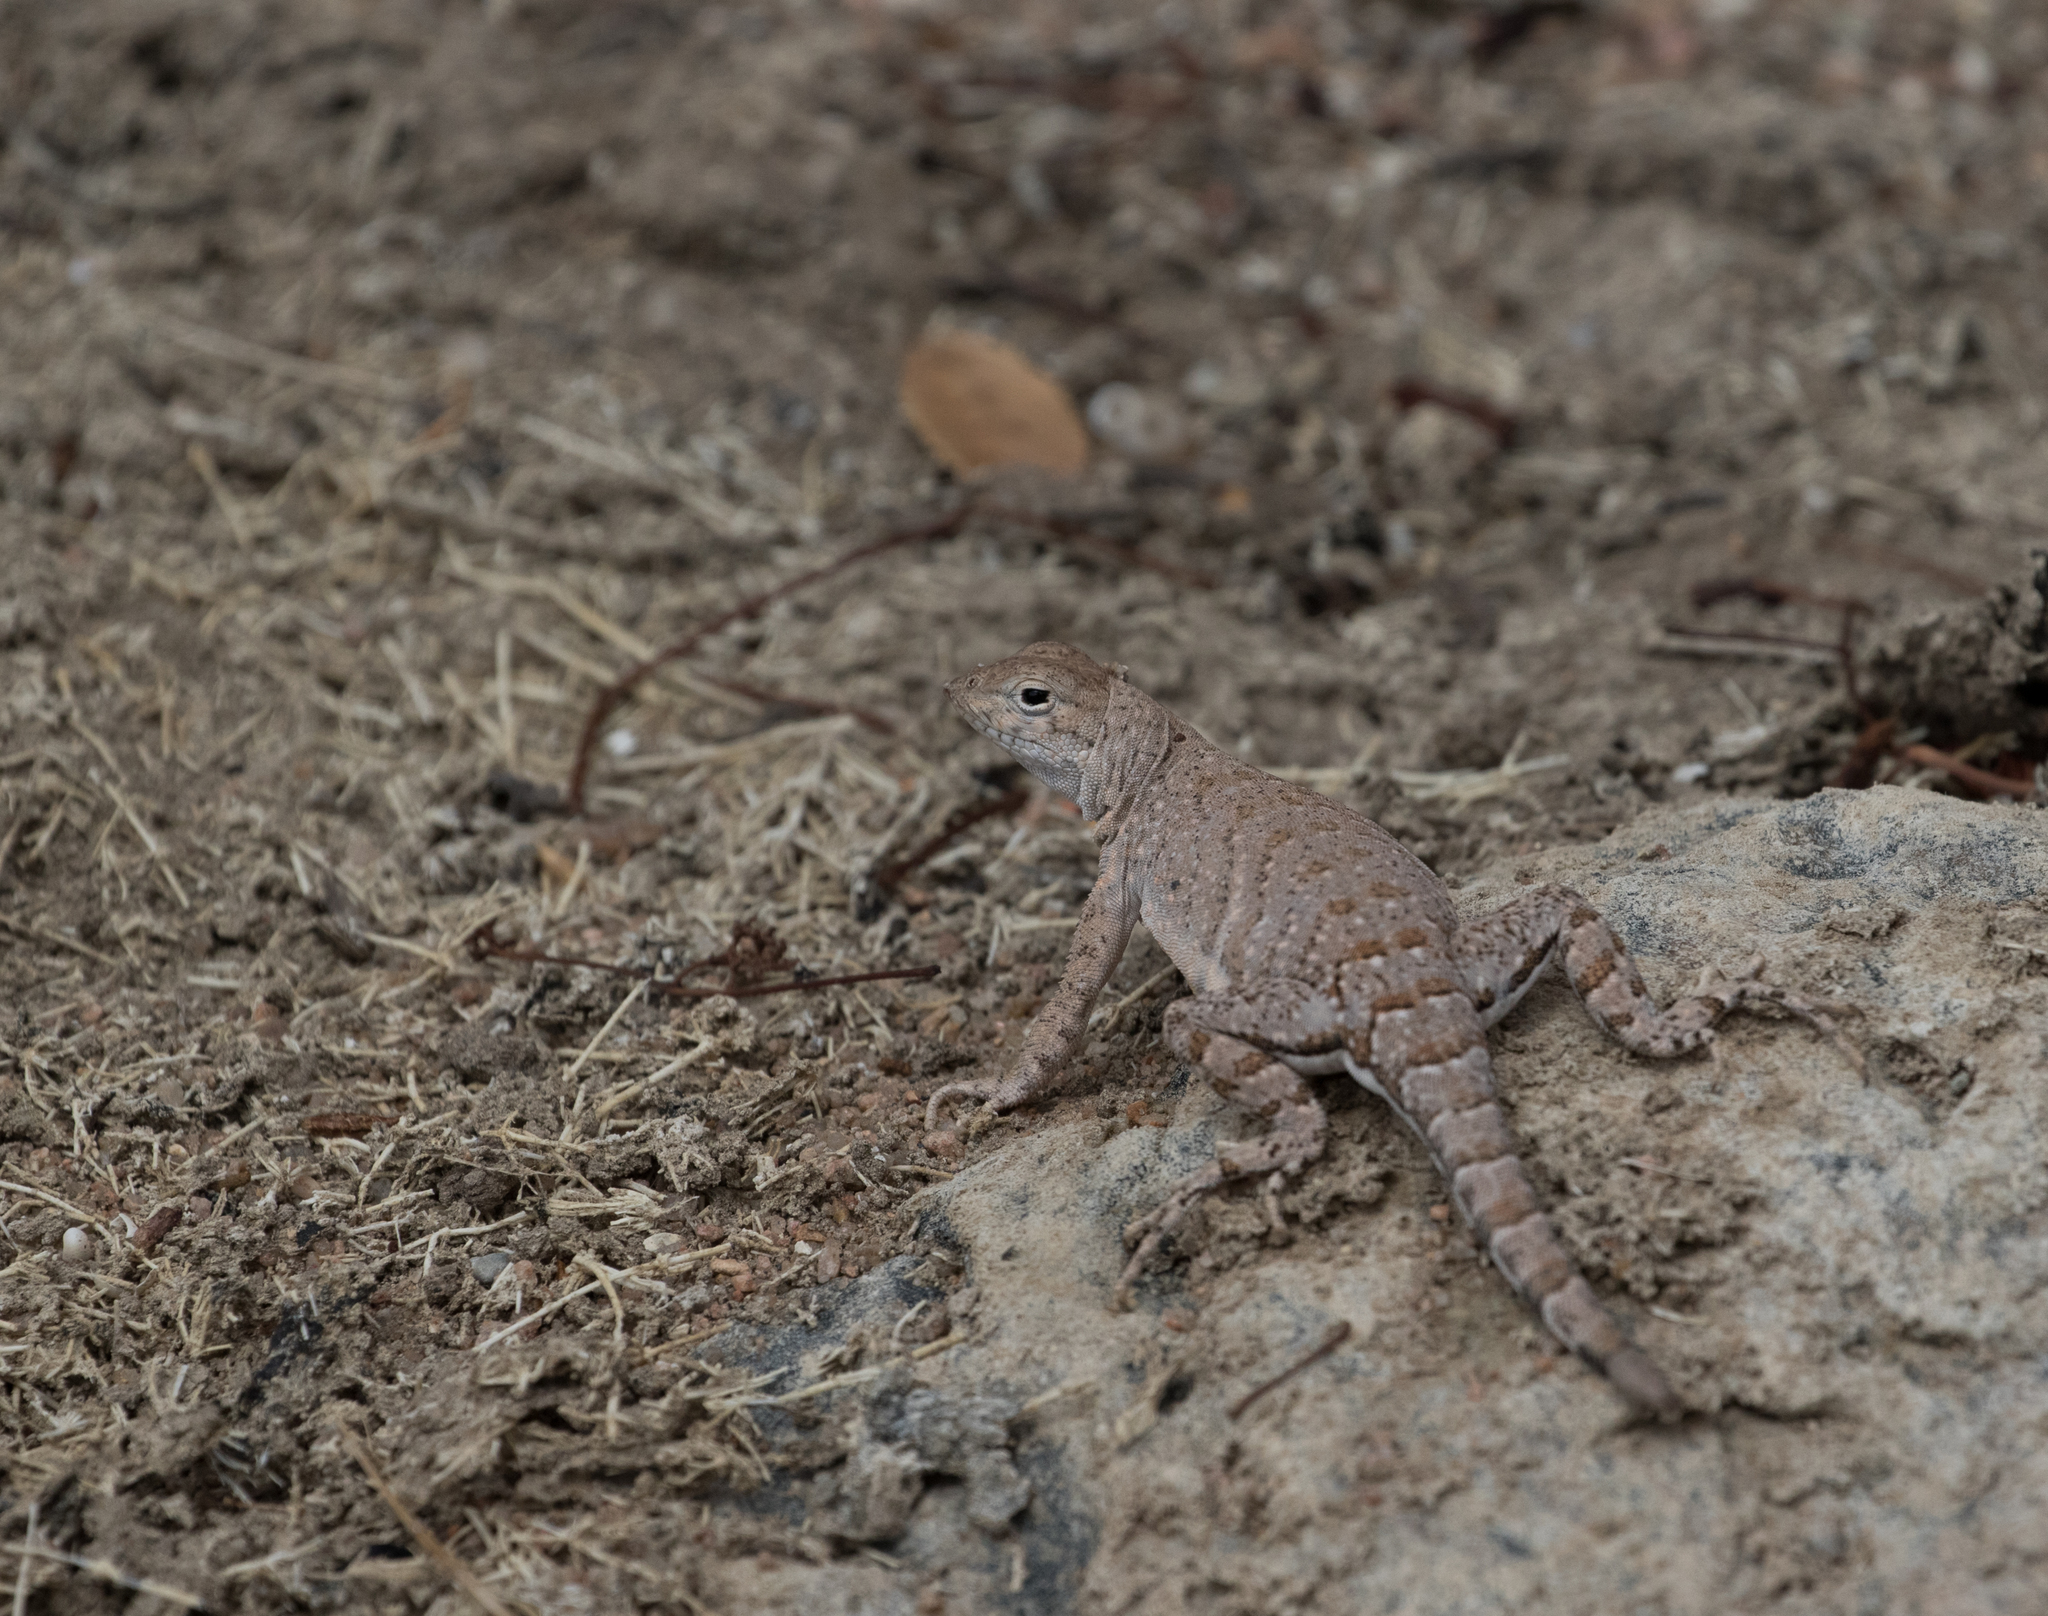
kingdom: Animalia
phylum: Chordata
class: Squamata
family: Phrynosomatidae
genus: Cophosaurus
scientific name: Cophosaurus texanus
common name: Greater earless lizard
